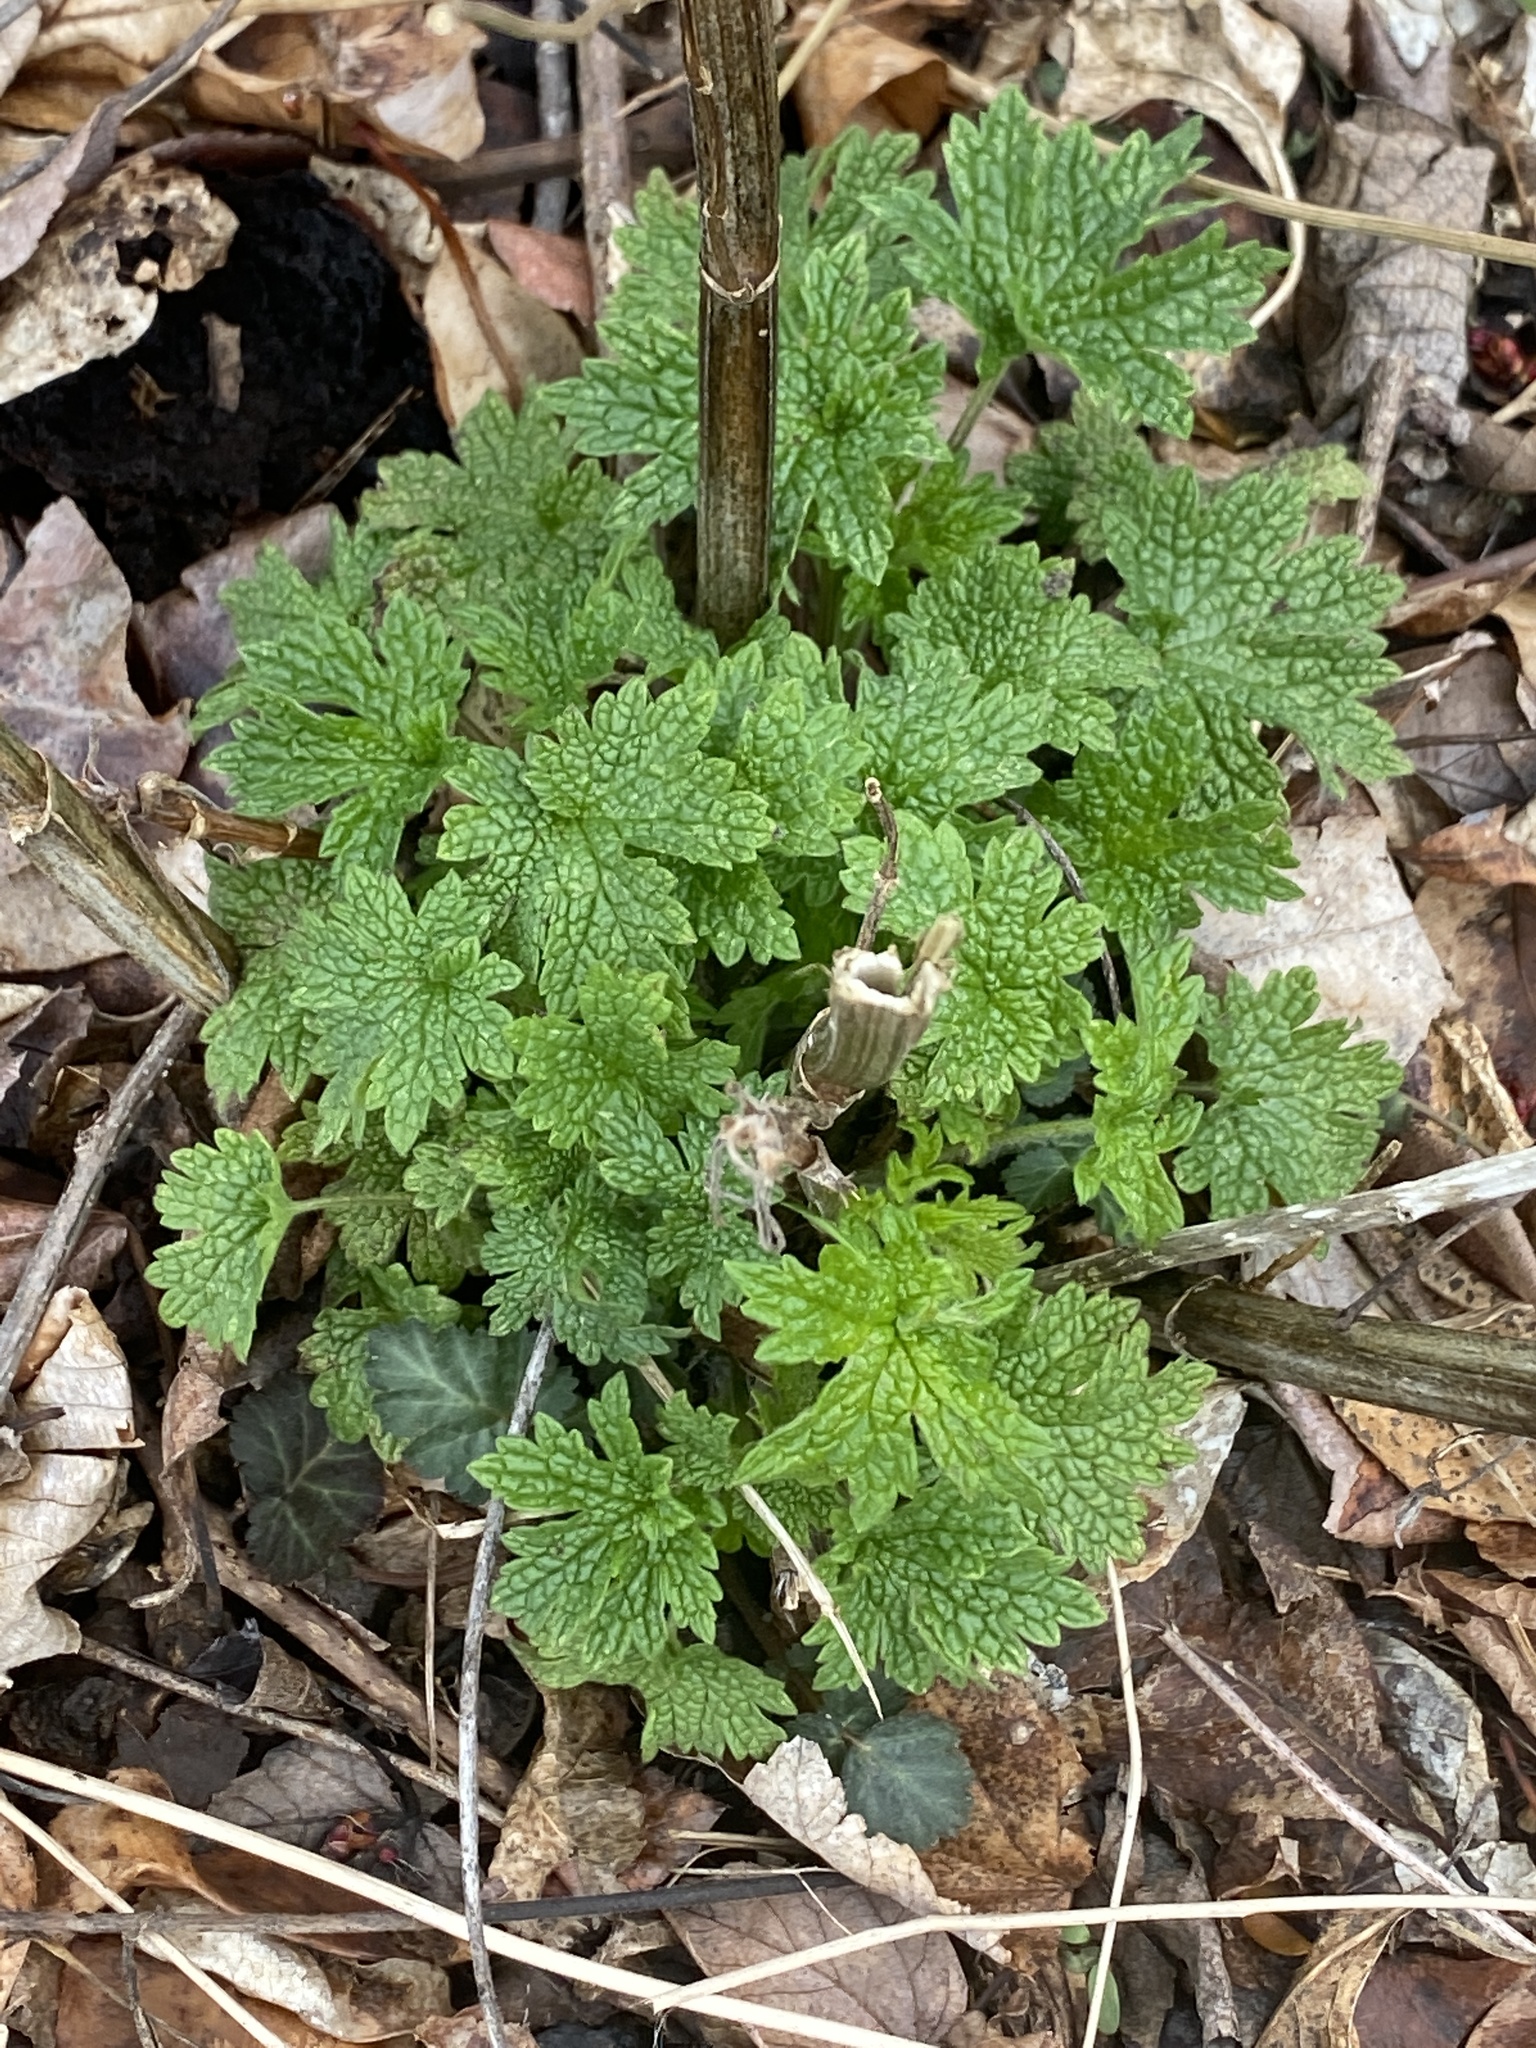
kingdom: Plantae
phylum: Tracheophyta
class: Magnoliopsida
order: Lamiales
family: Lamiaceae
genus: Leonurus
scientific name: Leonurus cardiaca
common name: Motherwort
